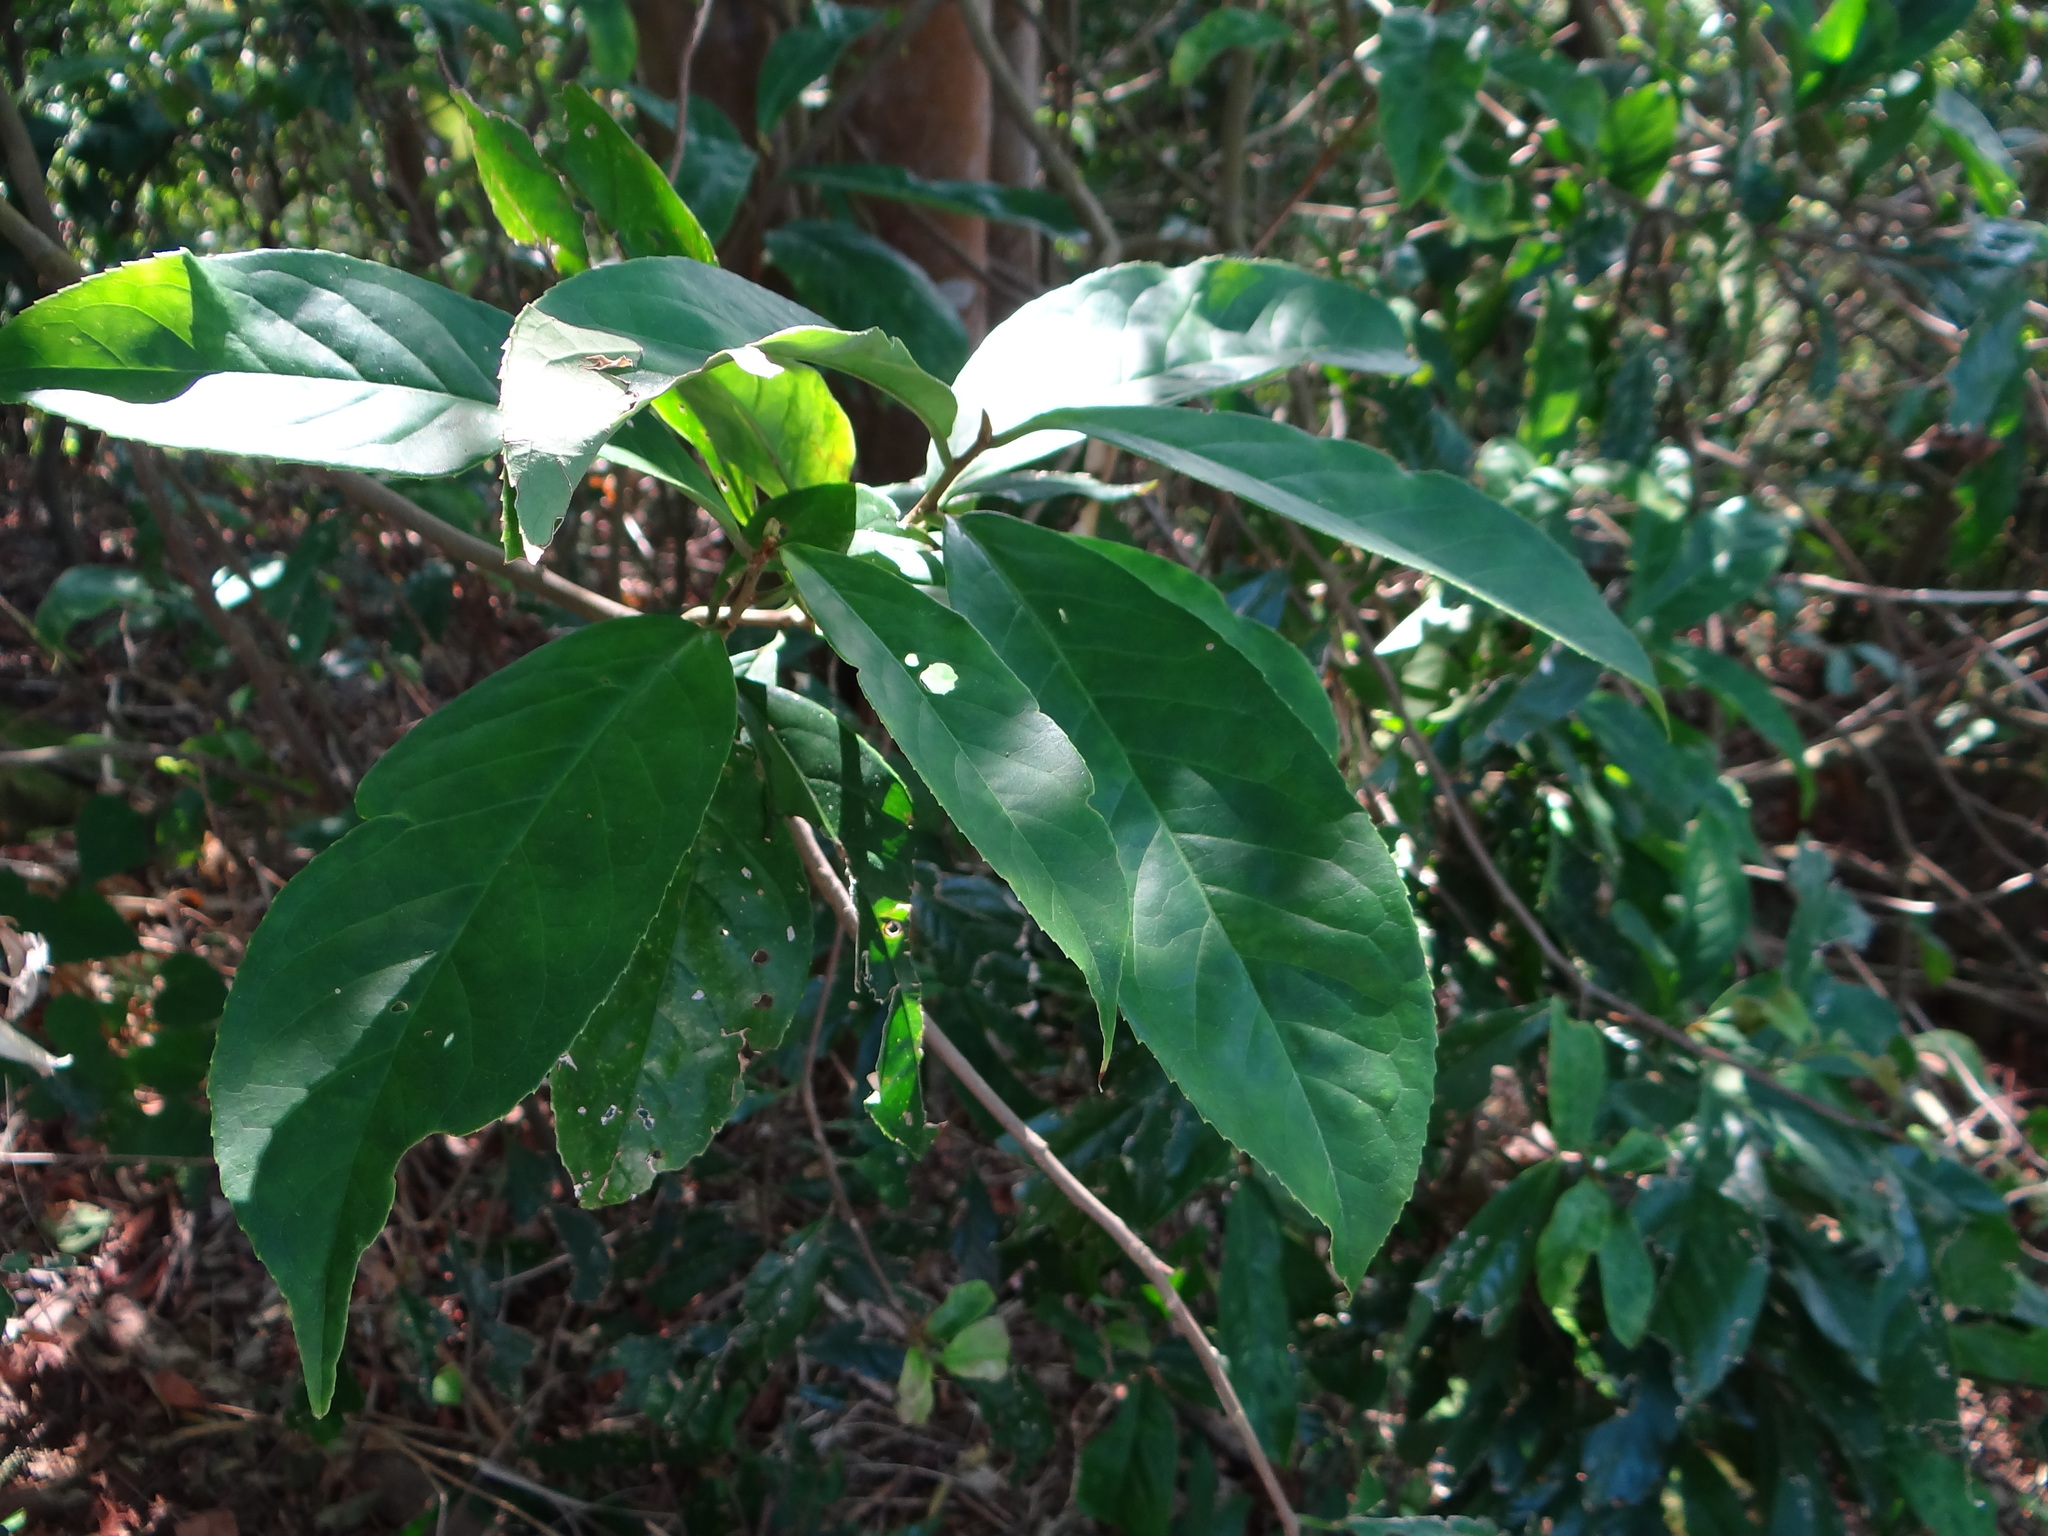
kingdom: Plantae
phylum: Tracheophyta
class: Magnoliopsida
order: Ericales
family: Symplocaceae
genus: Symplocos
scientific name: Symplocos acuminata
